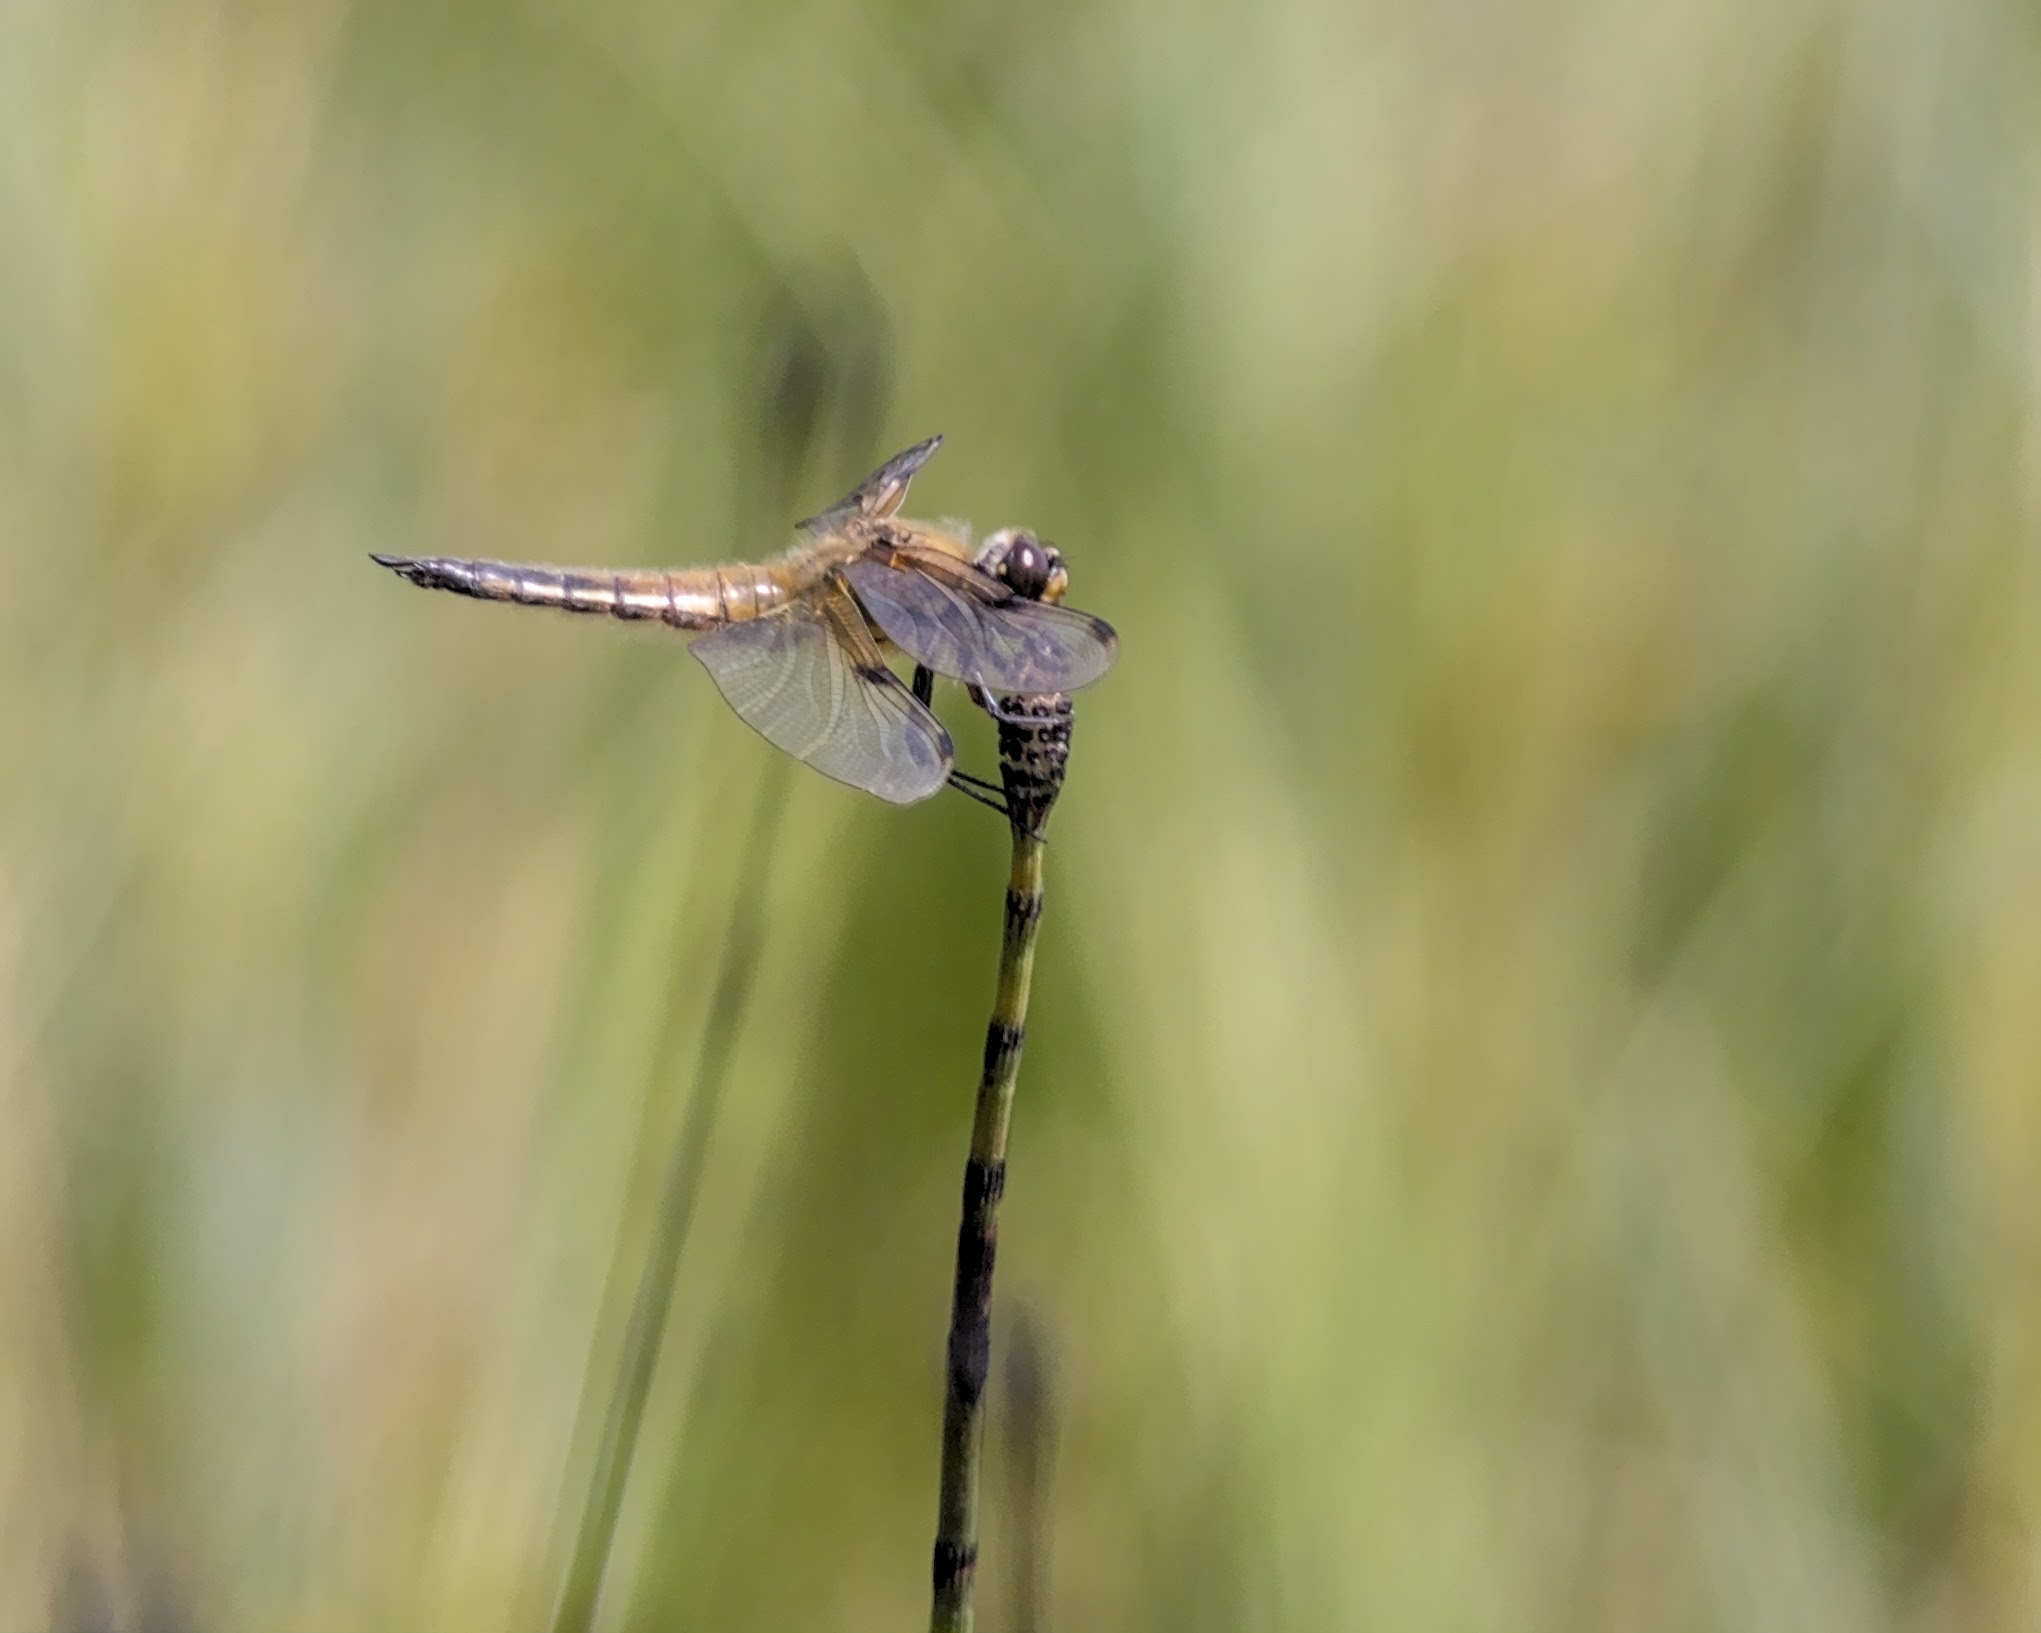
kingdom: Animalia
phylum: Arthropoda
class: Insecta
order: Odonata
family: Libellulidae
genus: Libellula
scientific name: Libellula quadrimaculata
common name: Four-spotted chaser
